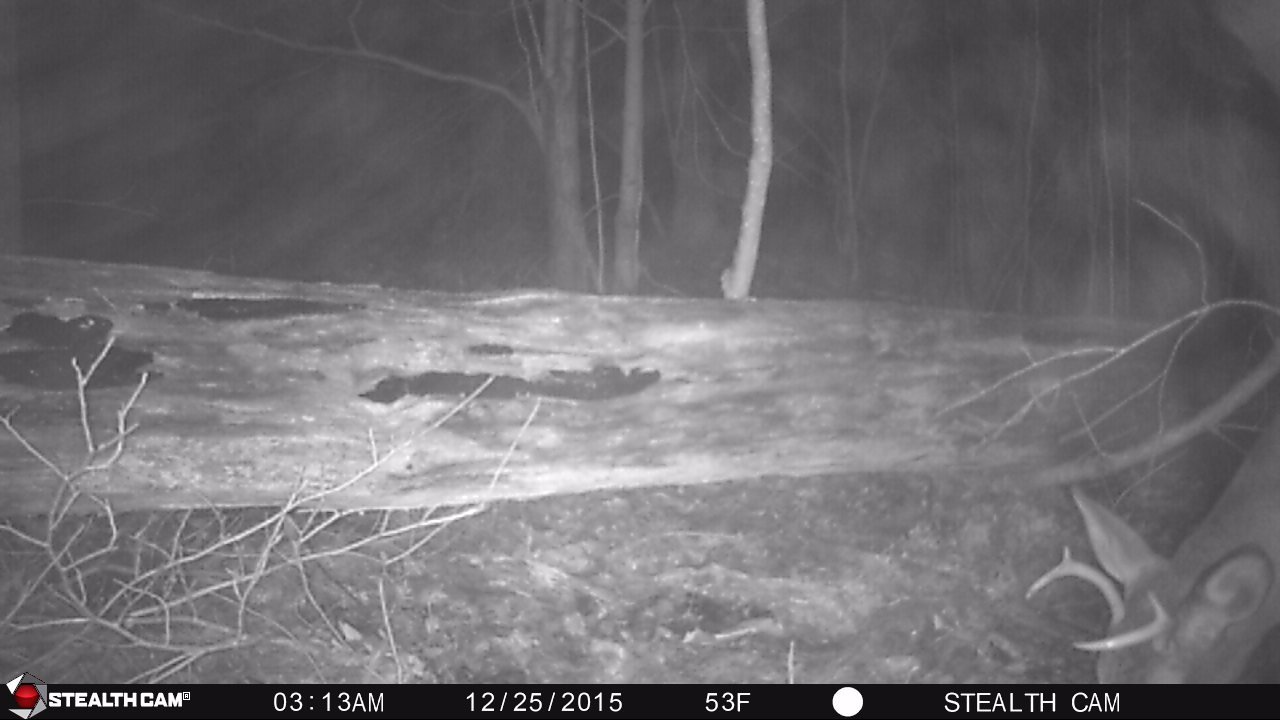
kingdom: Animalia
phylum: Chordata
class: Mammalia
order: Artiodactyla
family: Cervidae
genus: Odocoileus
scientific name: Odocoileus virginianus
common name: White-tailed deer
